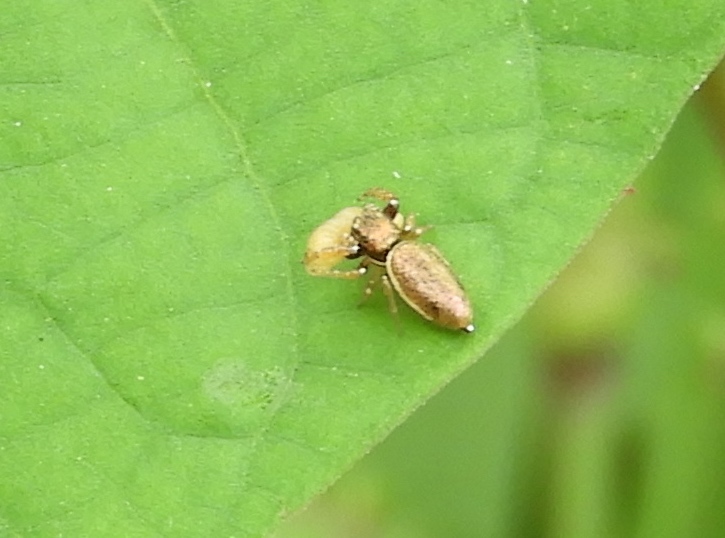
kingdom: Animalia
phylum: Arthropoda
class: Arachnida
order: Araneae
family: Salticidae
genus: Sassacus
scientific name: Sassacus vitis
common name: Jumping spiders
